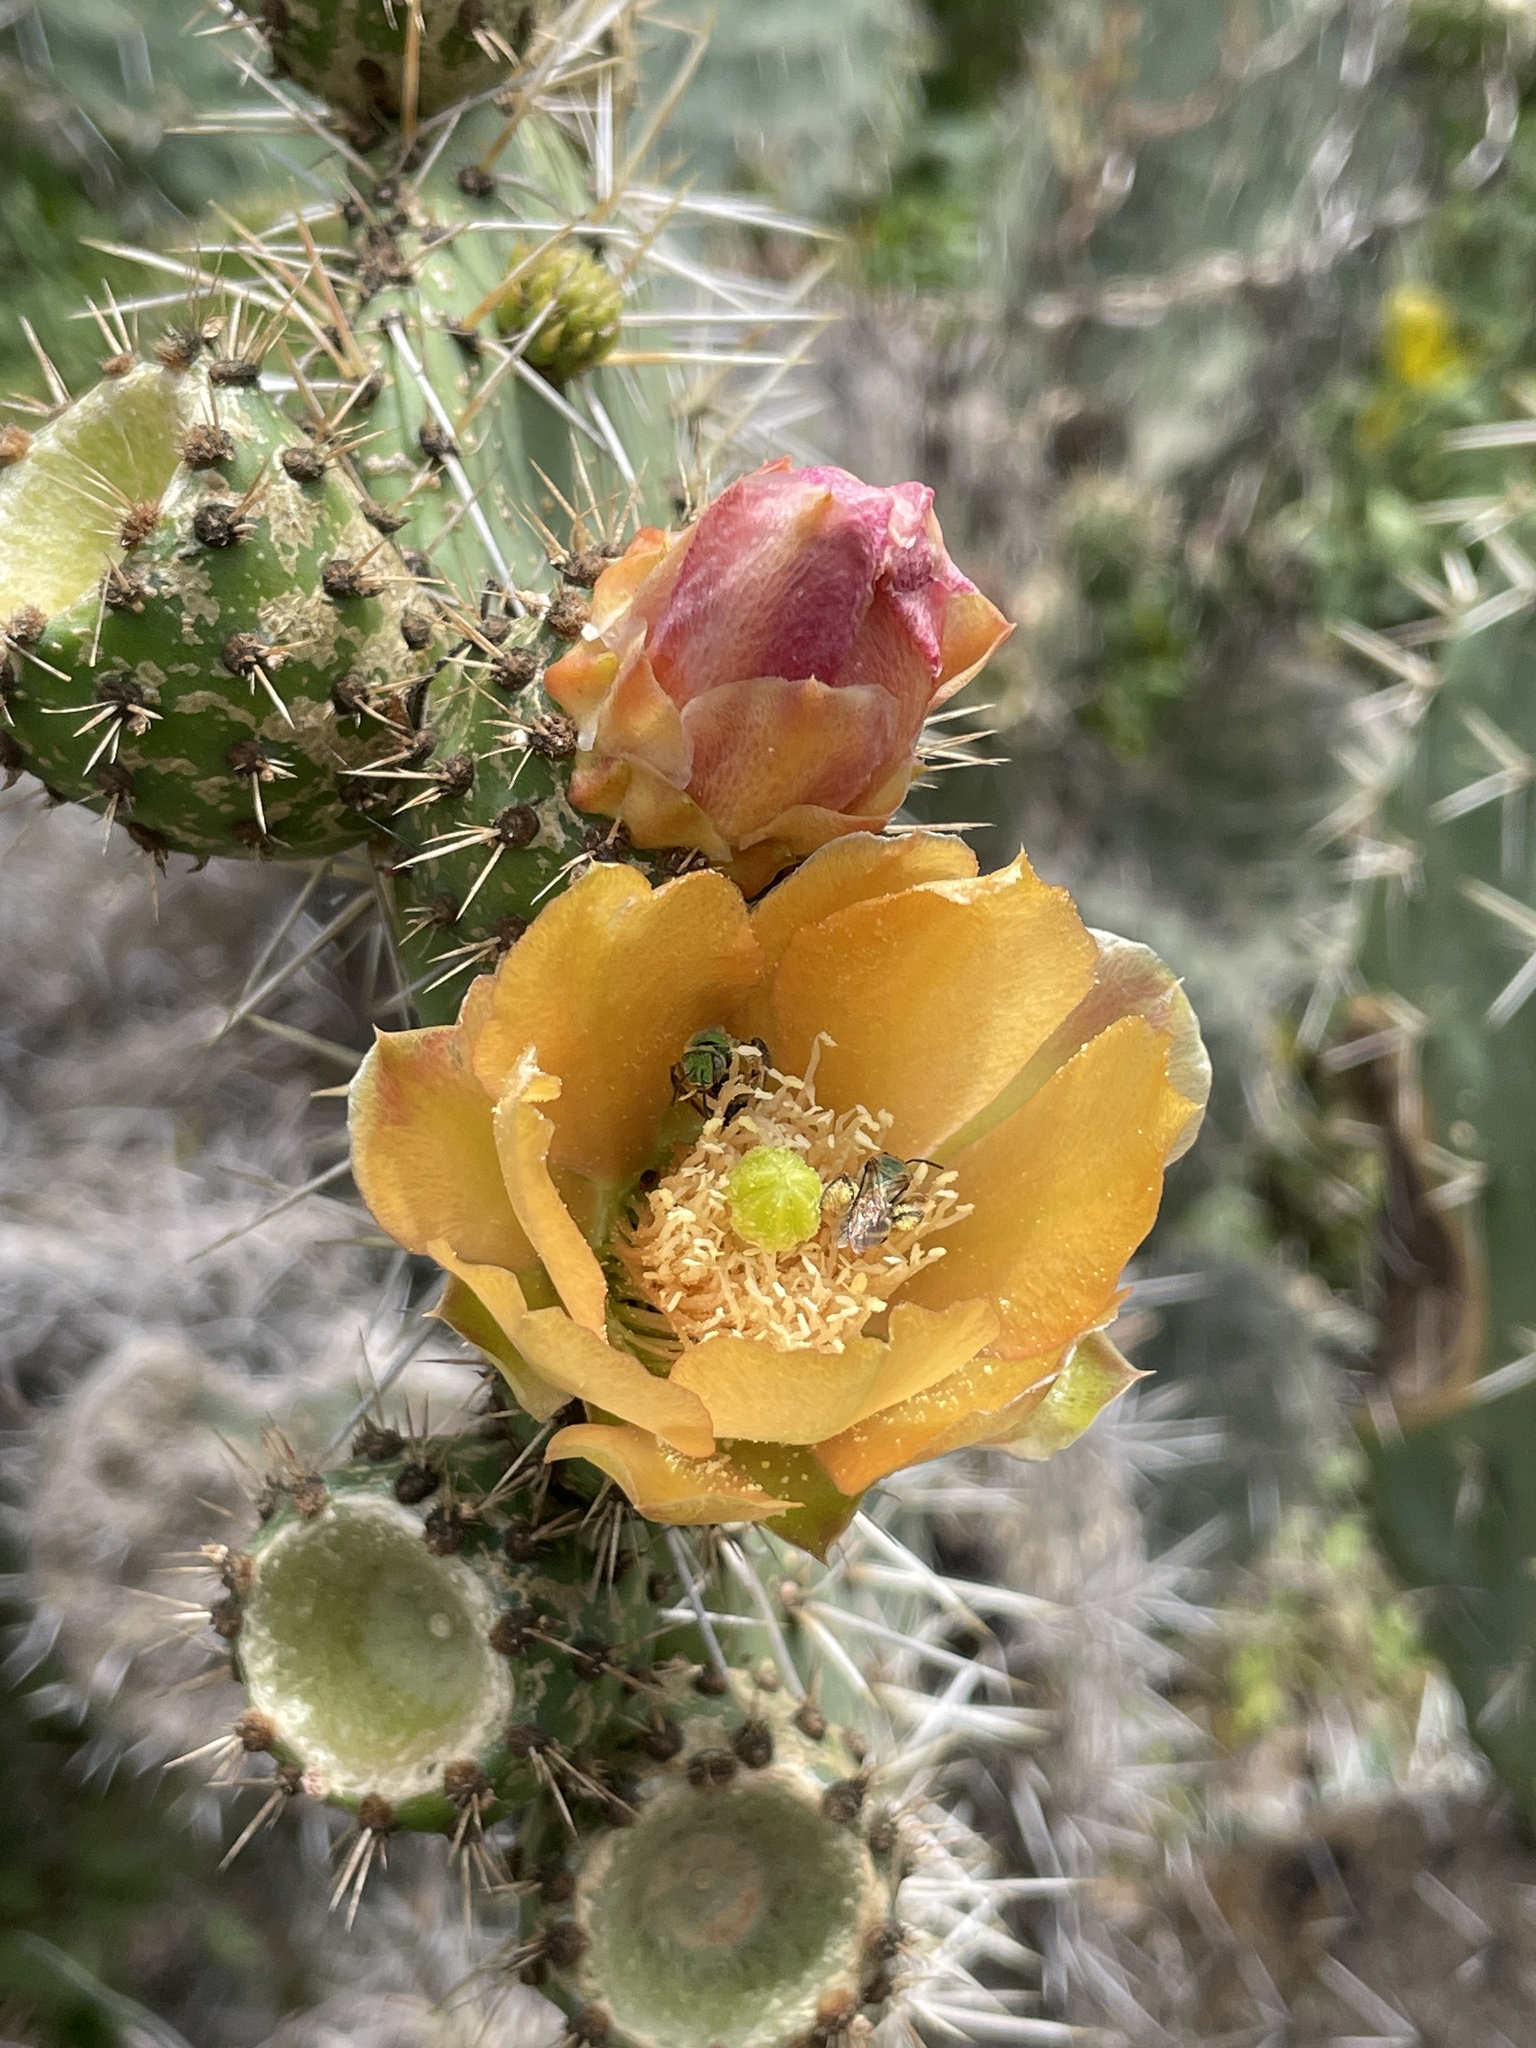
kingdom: Plantae
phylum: Tracheophyta
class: Magnoliopsida
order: Caryophyllales
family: Cactaceae
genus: Opuntia
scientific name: Opuntia soederstromiana
